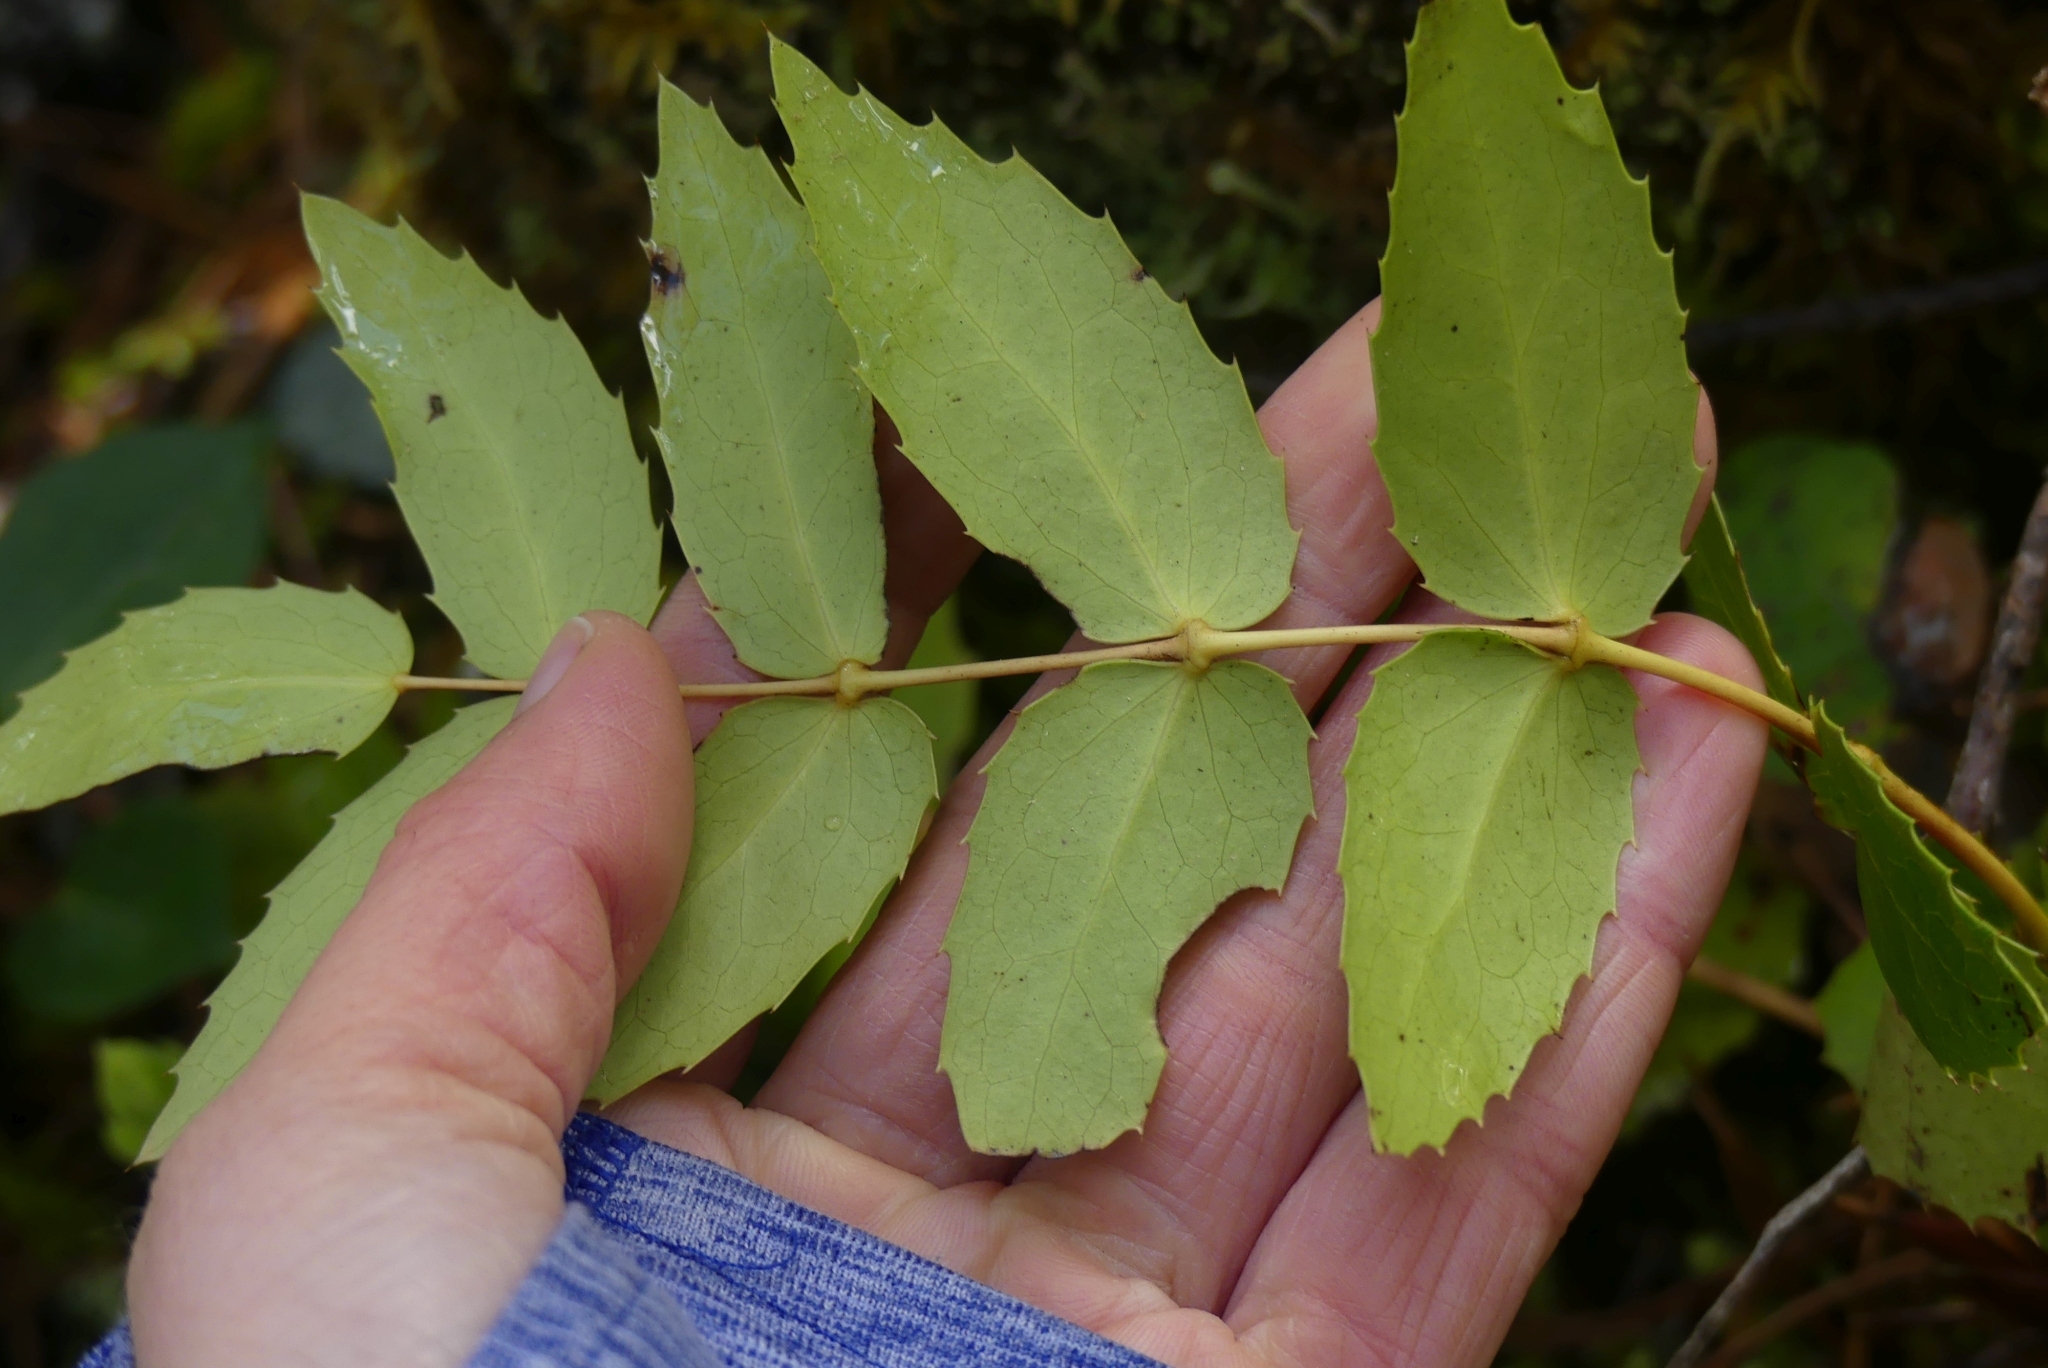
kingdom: Plantae
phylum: Tracheophyta
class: Magnoliopsida
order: Ranunculales
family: Berberidaceae
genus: Mahonia
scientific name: Mahonia nervosa
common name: Cascade oregon-grape
